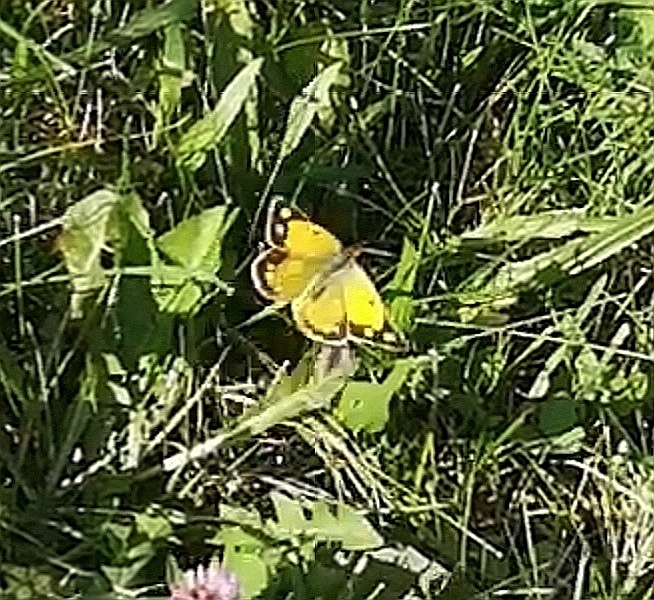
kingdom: Animalia
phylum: Arthropoda
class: Insecta
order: Lepidoptera
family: Pieridae
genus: Colias
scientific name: Colias croceus
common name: Clouded yellow
